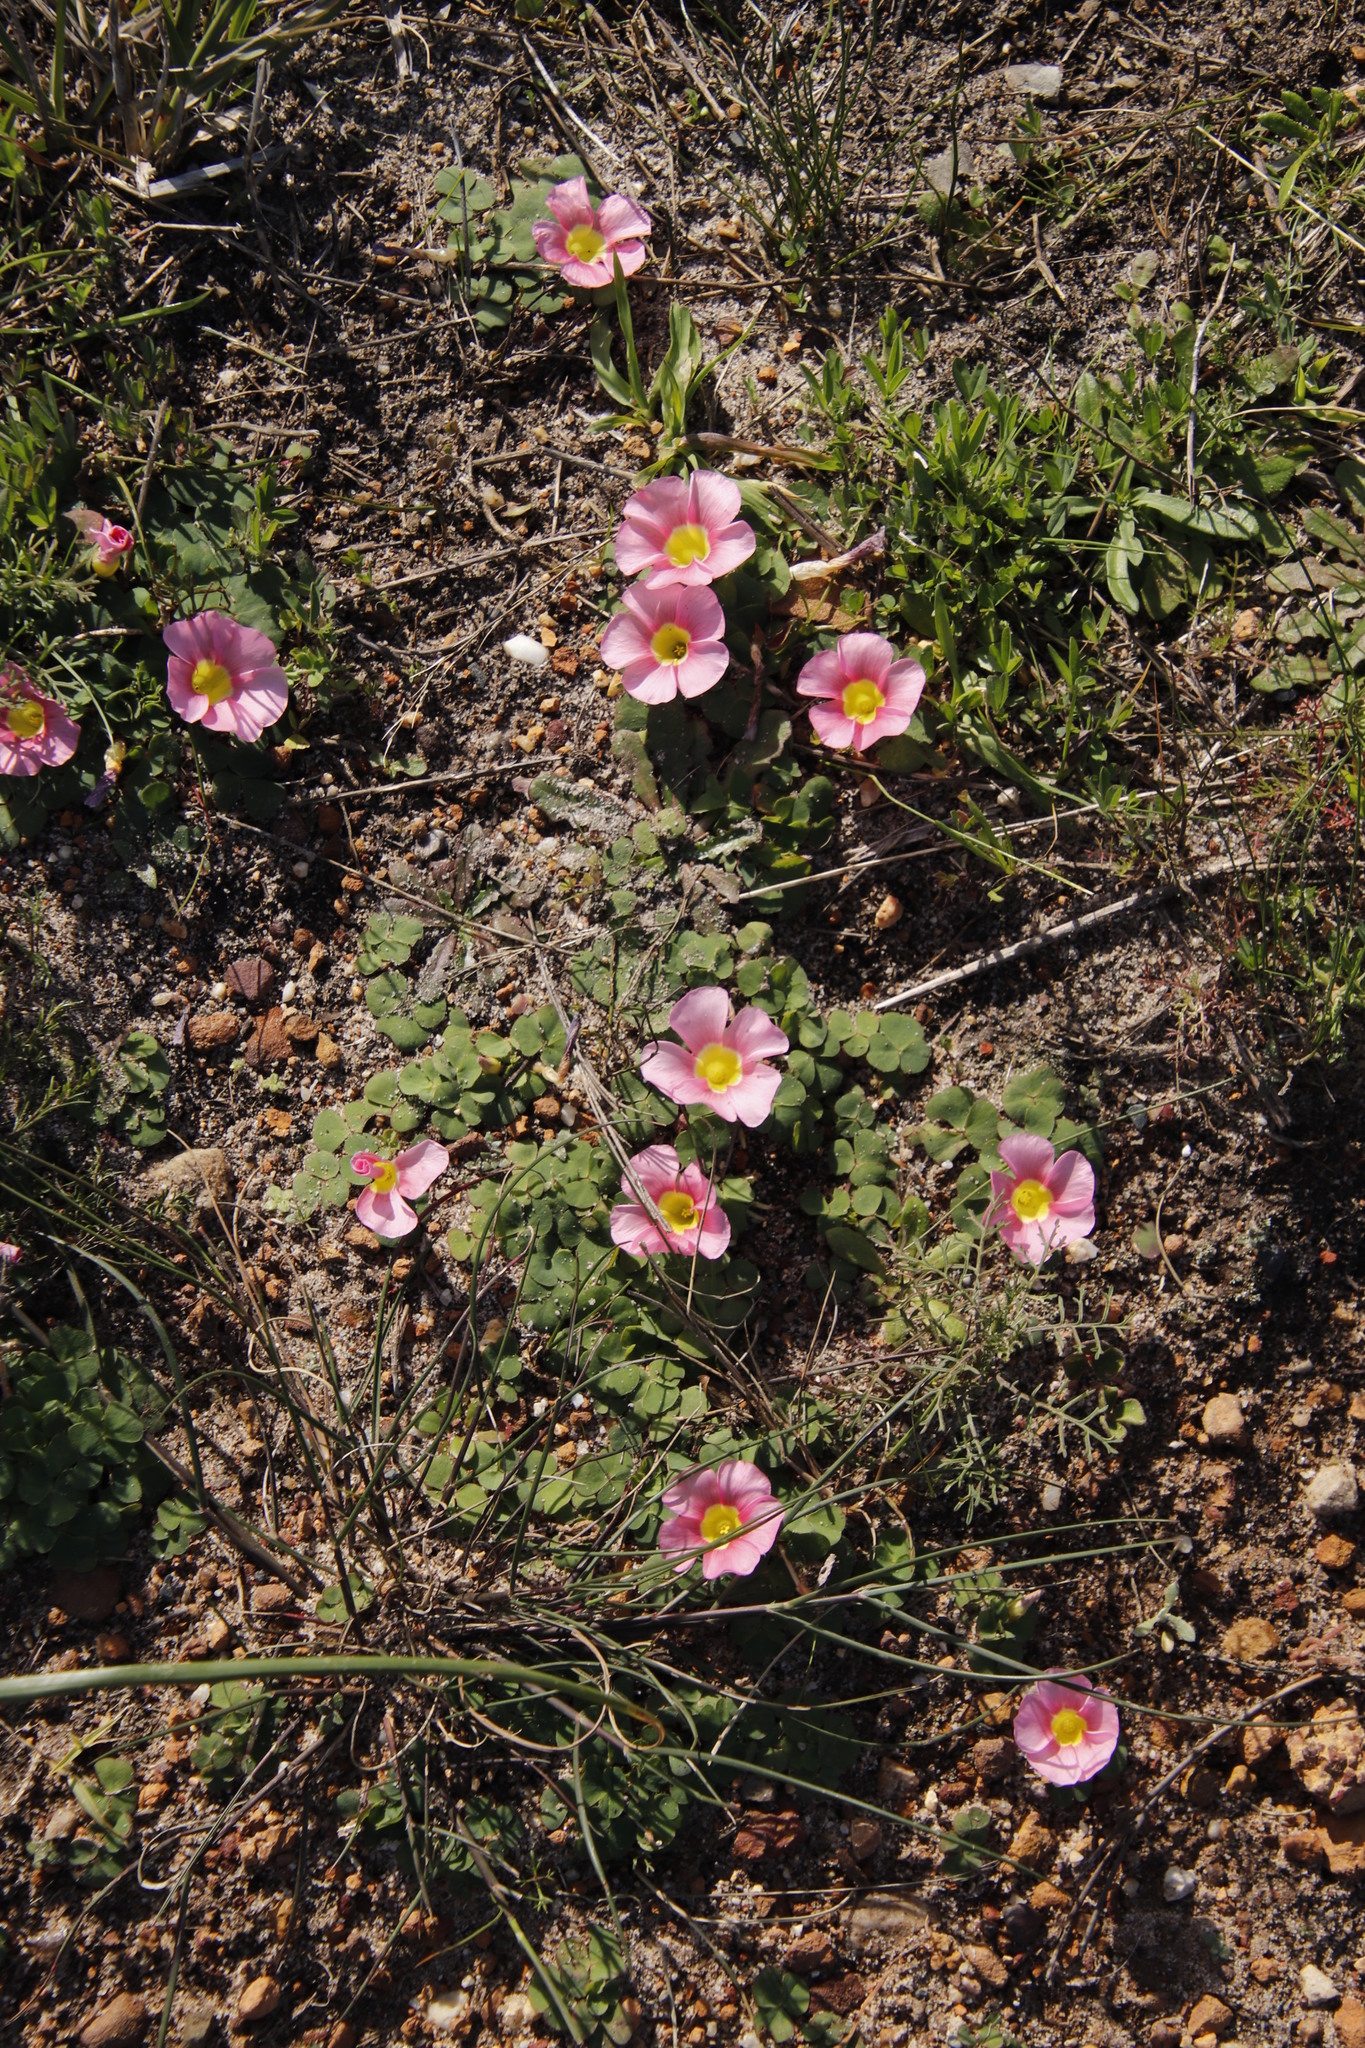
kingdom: Plantae
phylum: Tracheophyta
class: Magnoliopsida
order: Oxalidales
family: Oxalidaceae
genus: Oxalis
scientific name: Oxalis purpurea
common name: Purple woodsorrel
